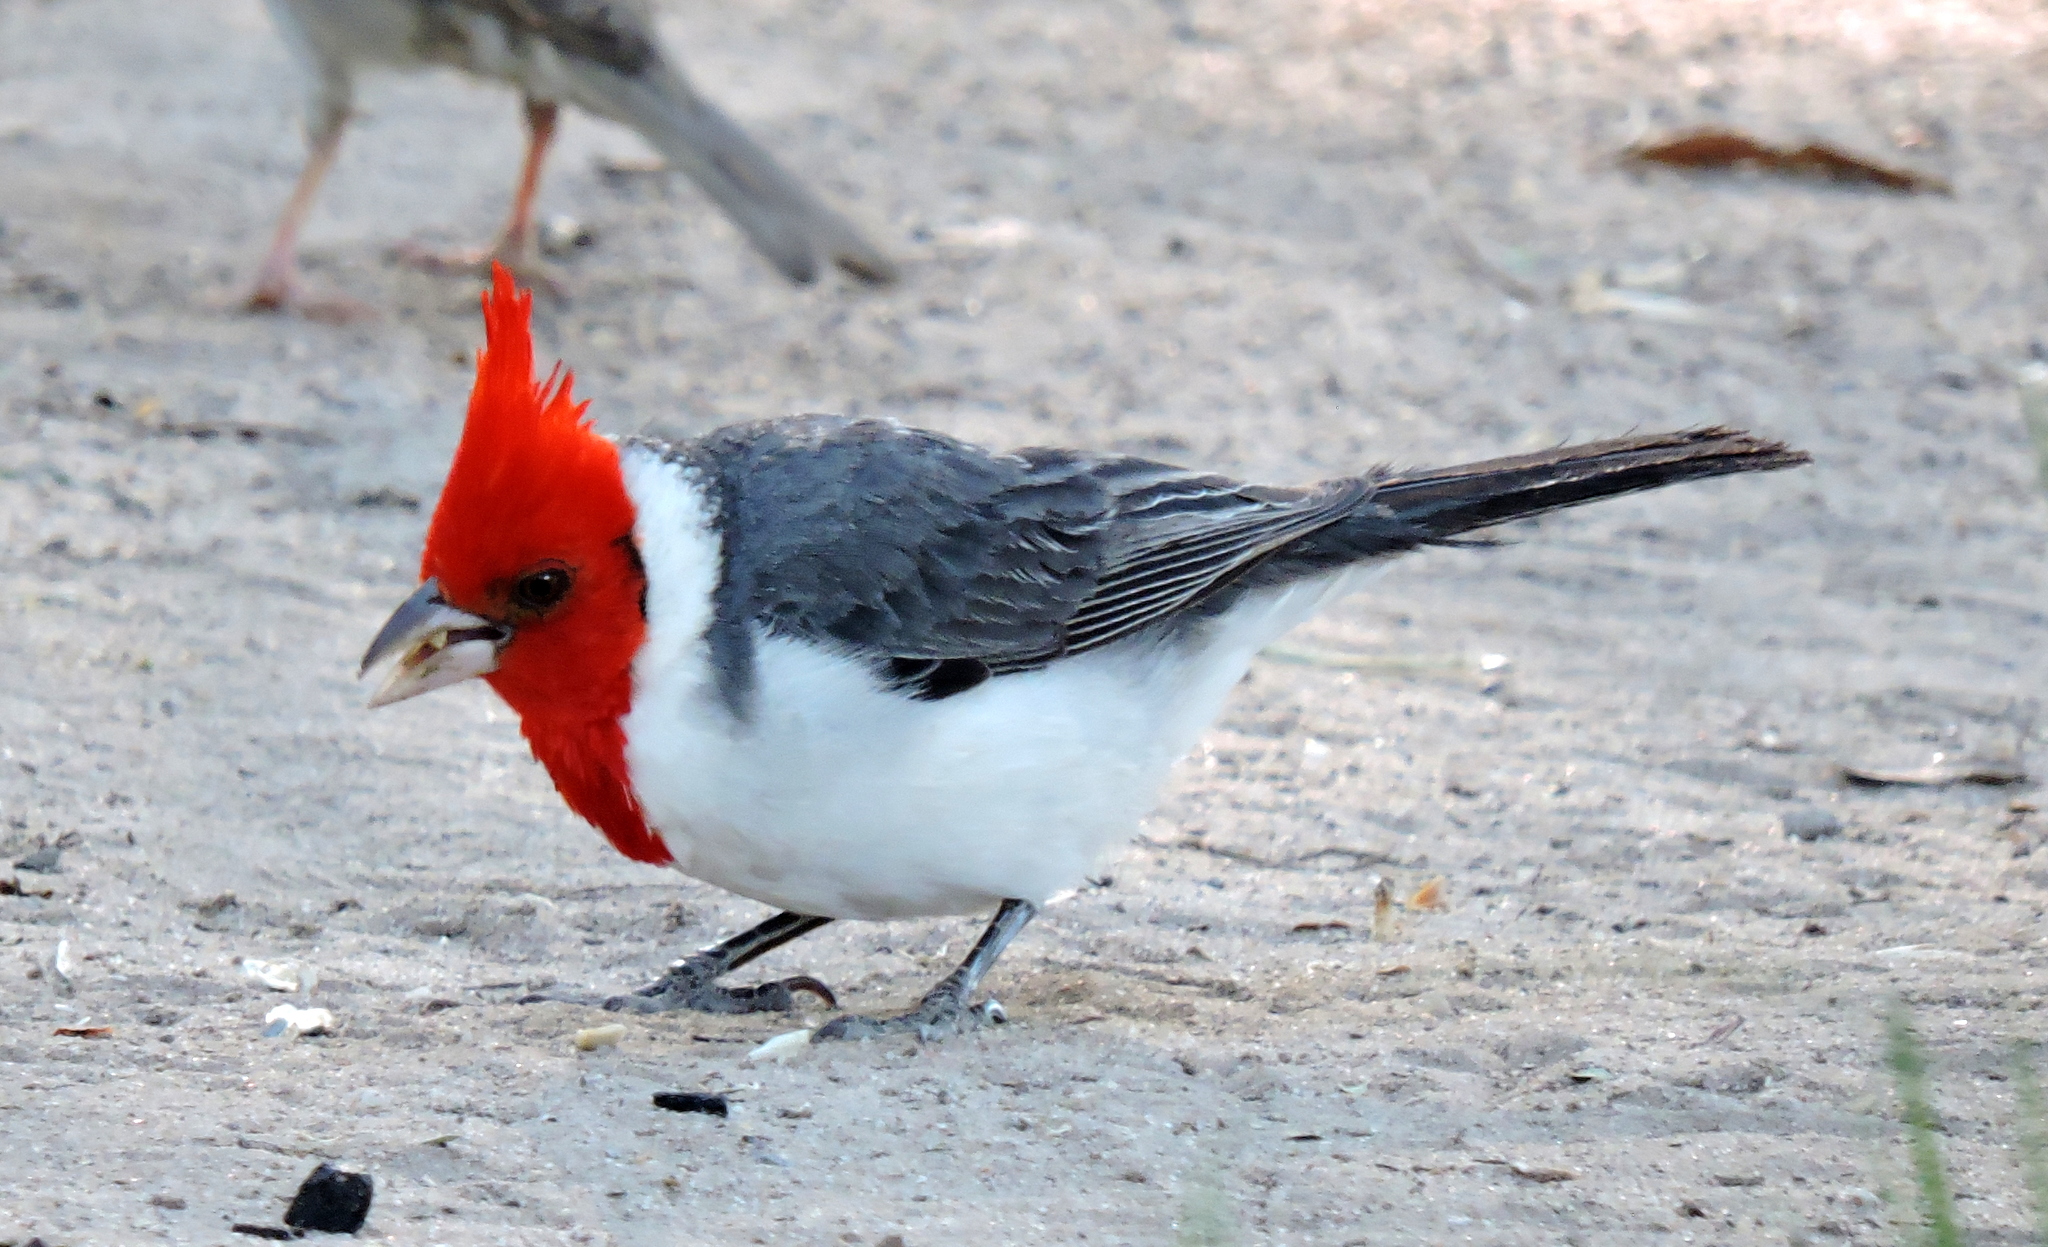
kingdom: Animalia
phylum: Chordata
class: Aves
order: Passeriformes
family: Thraupidae
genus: Paroaria
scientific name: Paroaria coronata
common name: Red-crested cardinal
